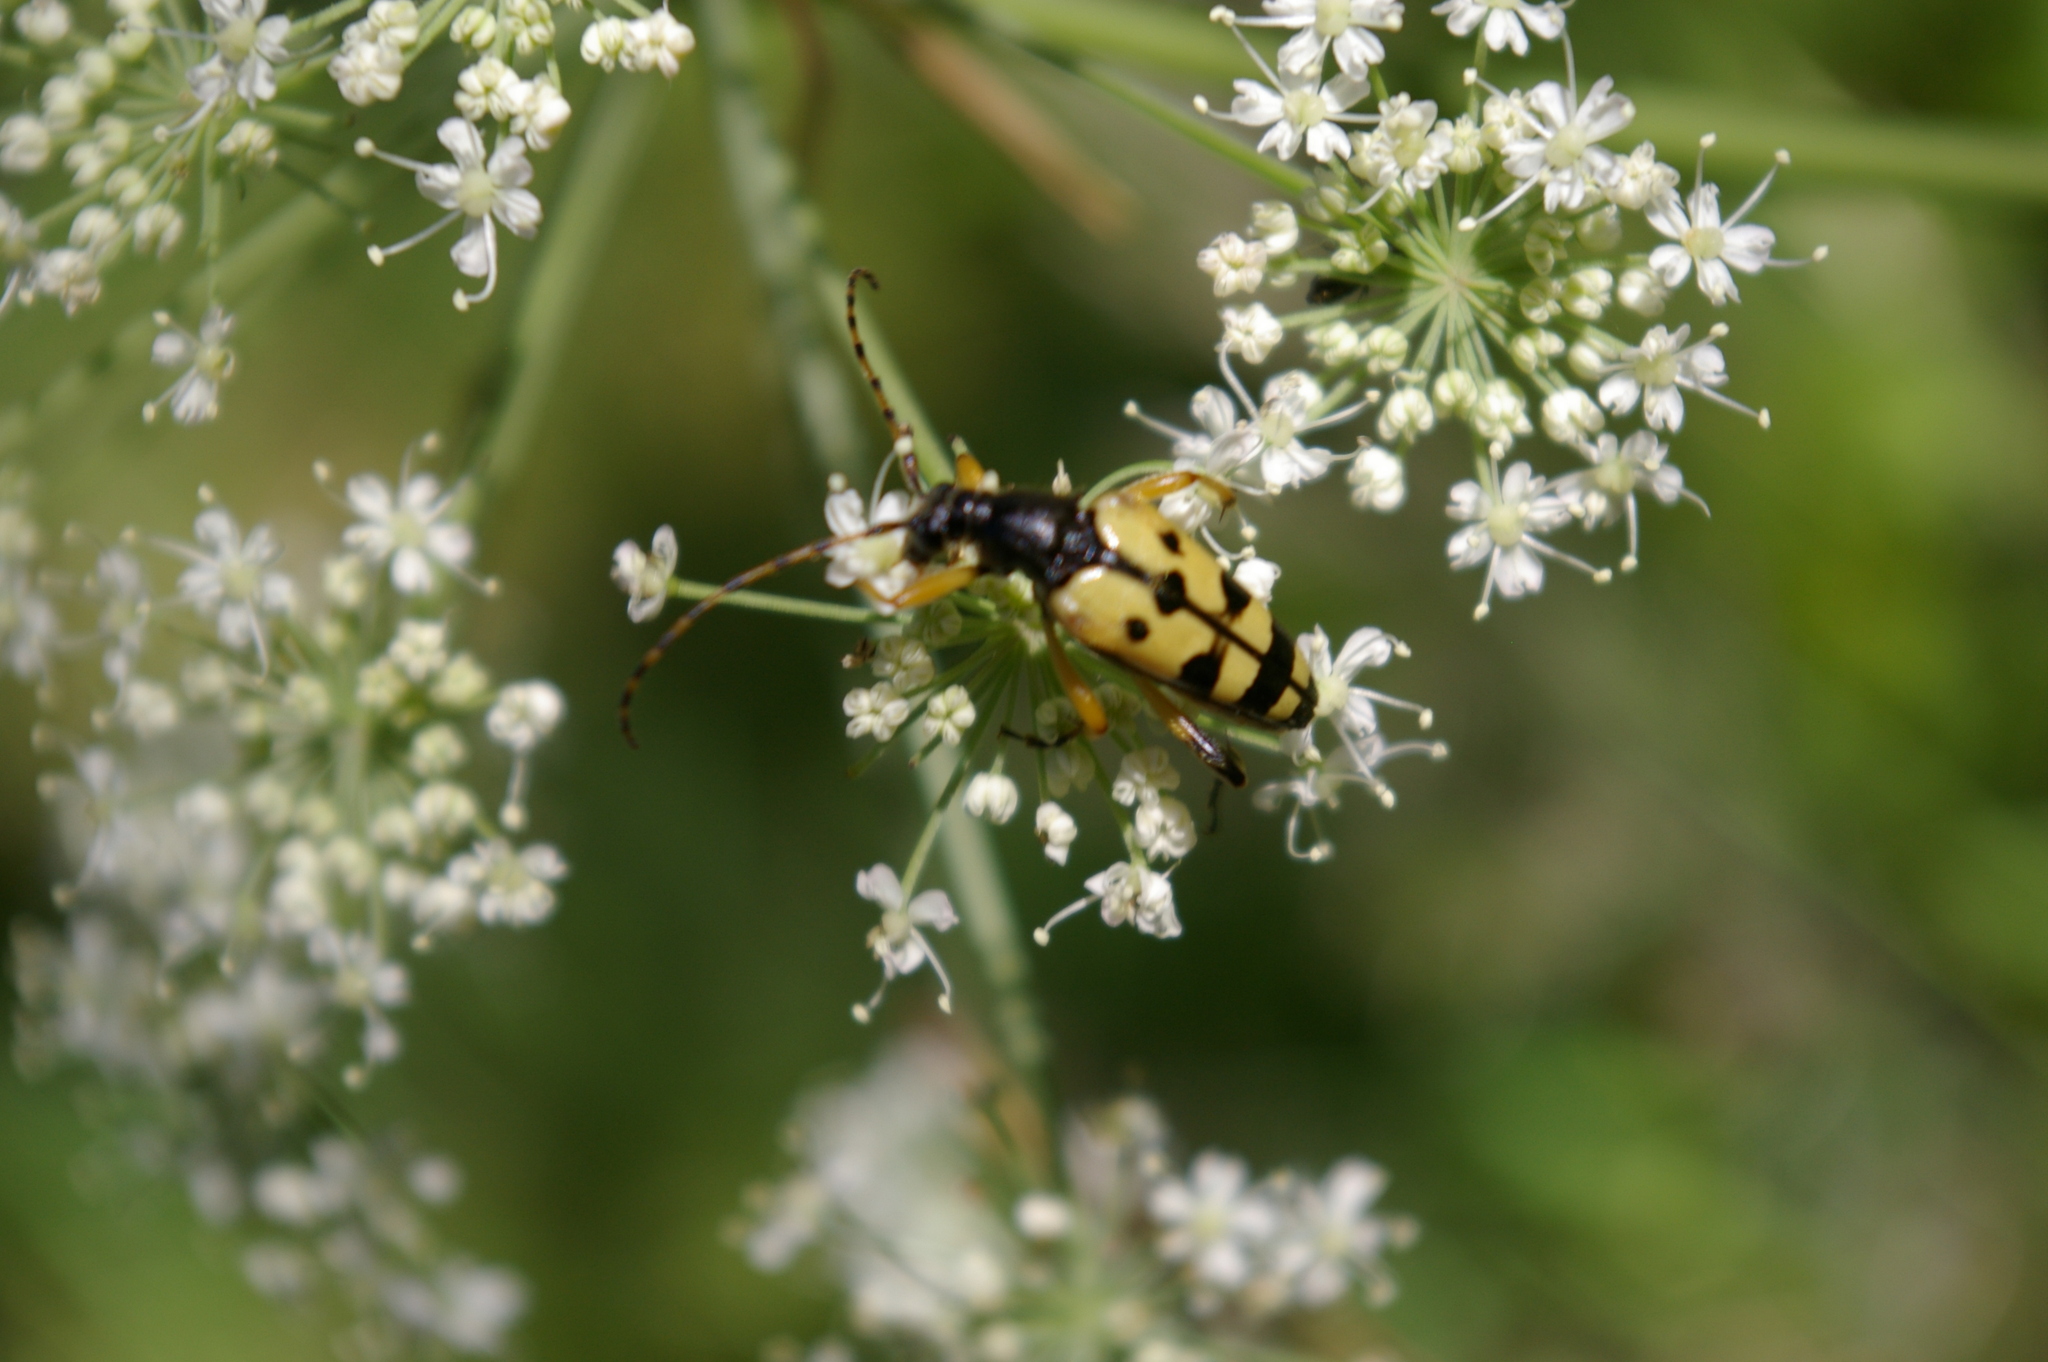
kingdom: Animalia
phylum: Arthropoda
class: Insecta
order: Coleoptera
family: Cerambycidae
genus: Rutpela
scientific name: Rutpela maculata
